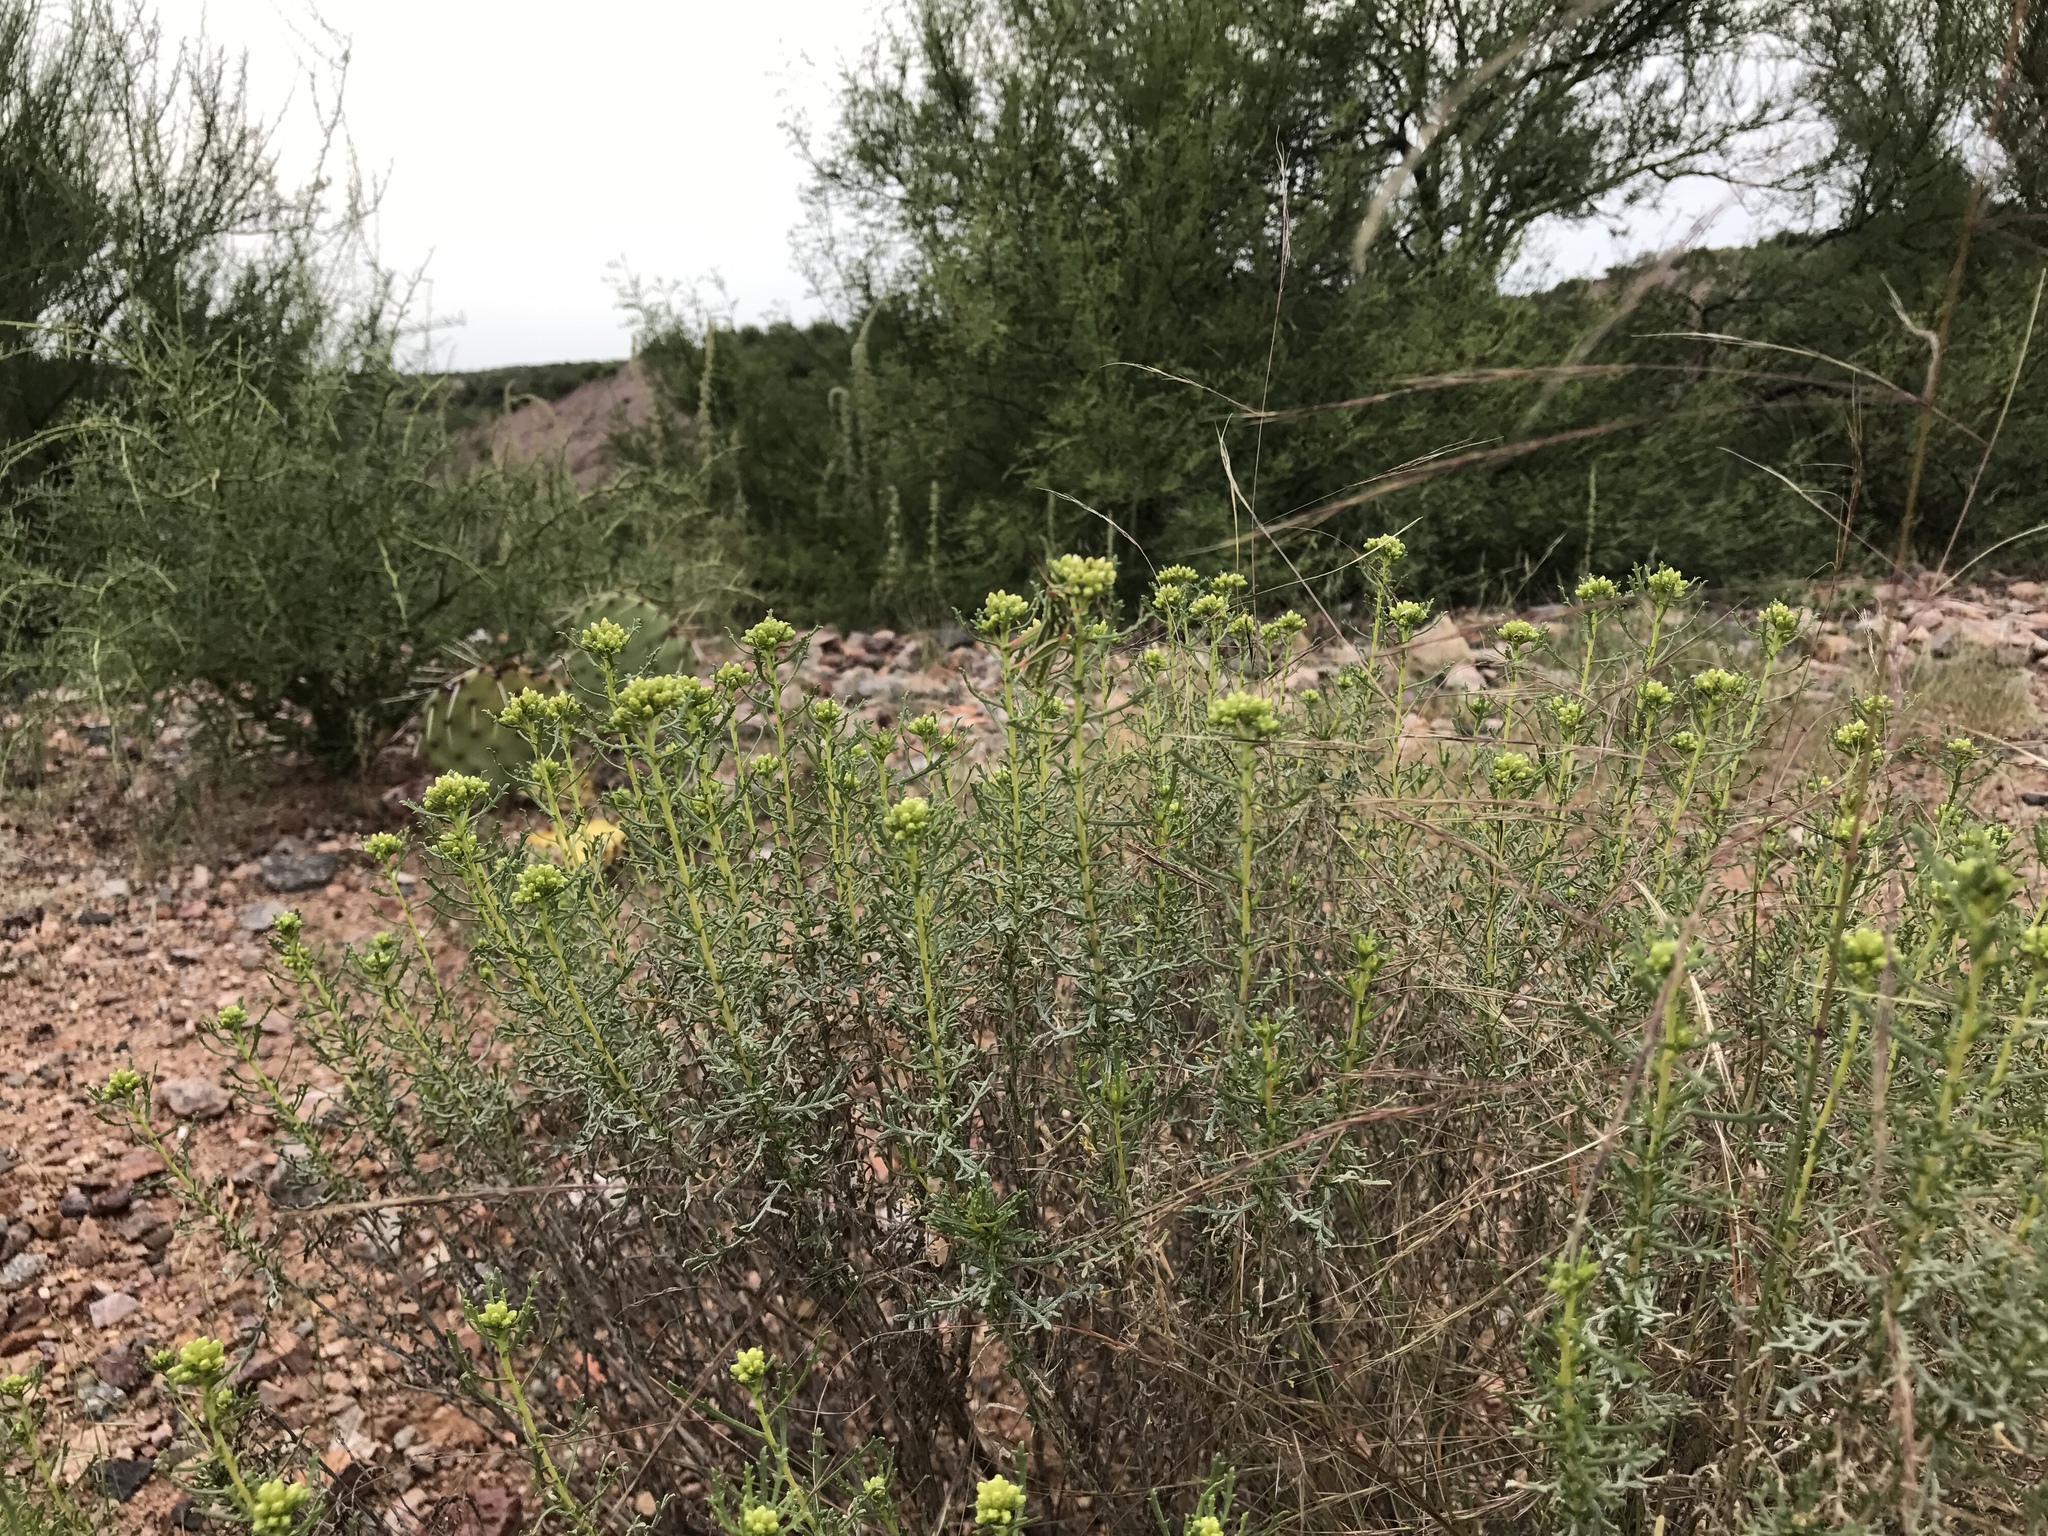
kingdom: Plantae
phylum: Tracheophyta
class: Magnoliopsida
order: Asterales
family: Asteraceae
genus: Isocoma
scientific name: Isocoma tenuisecta
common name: Burroweed
